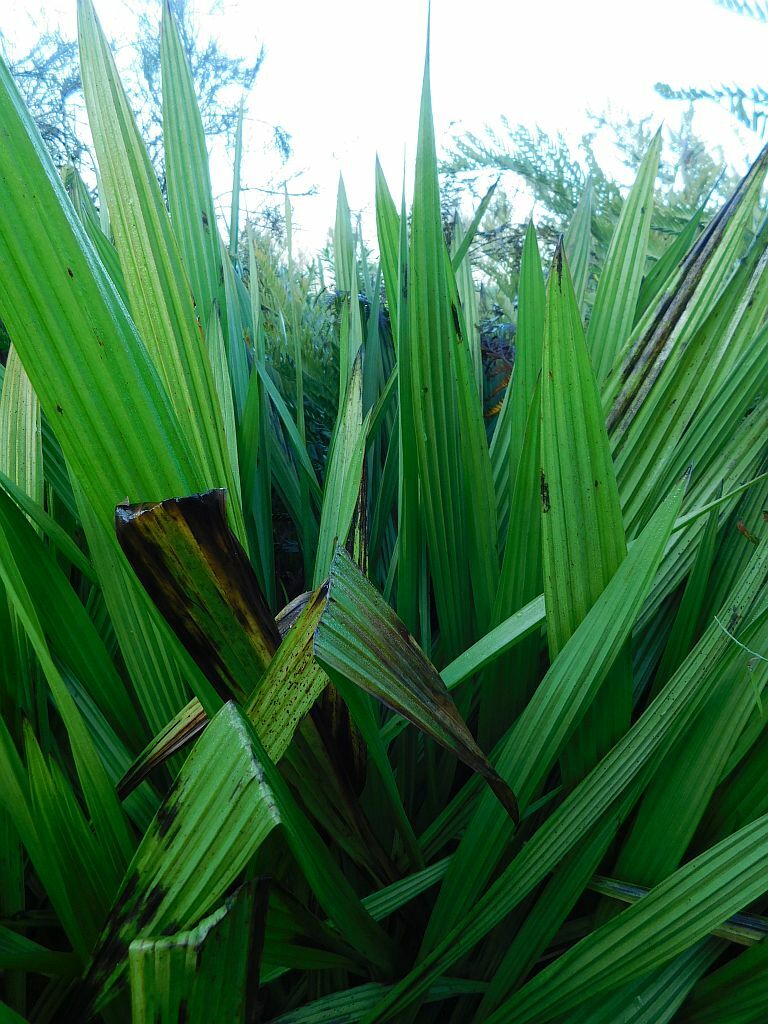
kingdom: Plantae
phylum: Tracheophyta
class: Liliopsida
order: Commelinales
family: Haemodoraceae
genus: Wachendorfia
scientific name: Wachendorfia thyrsiflora
